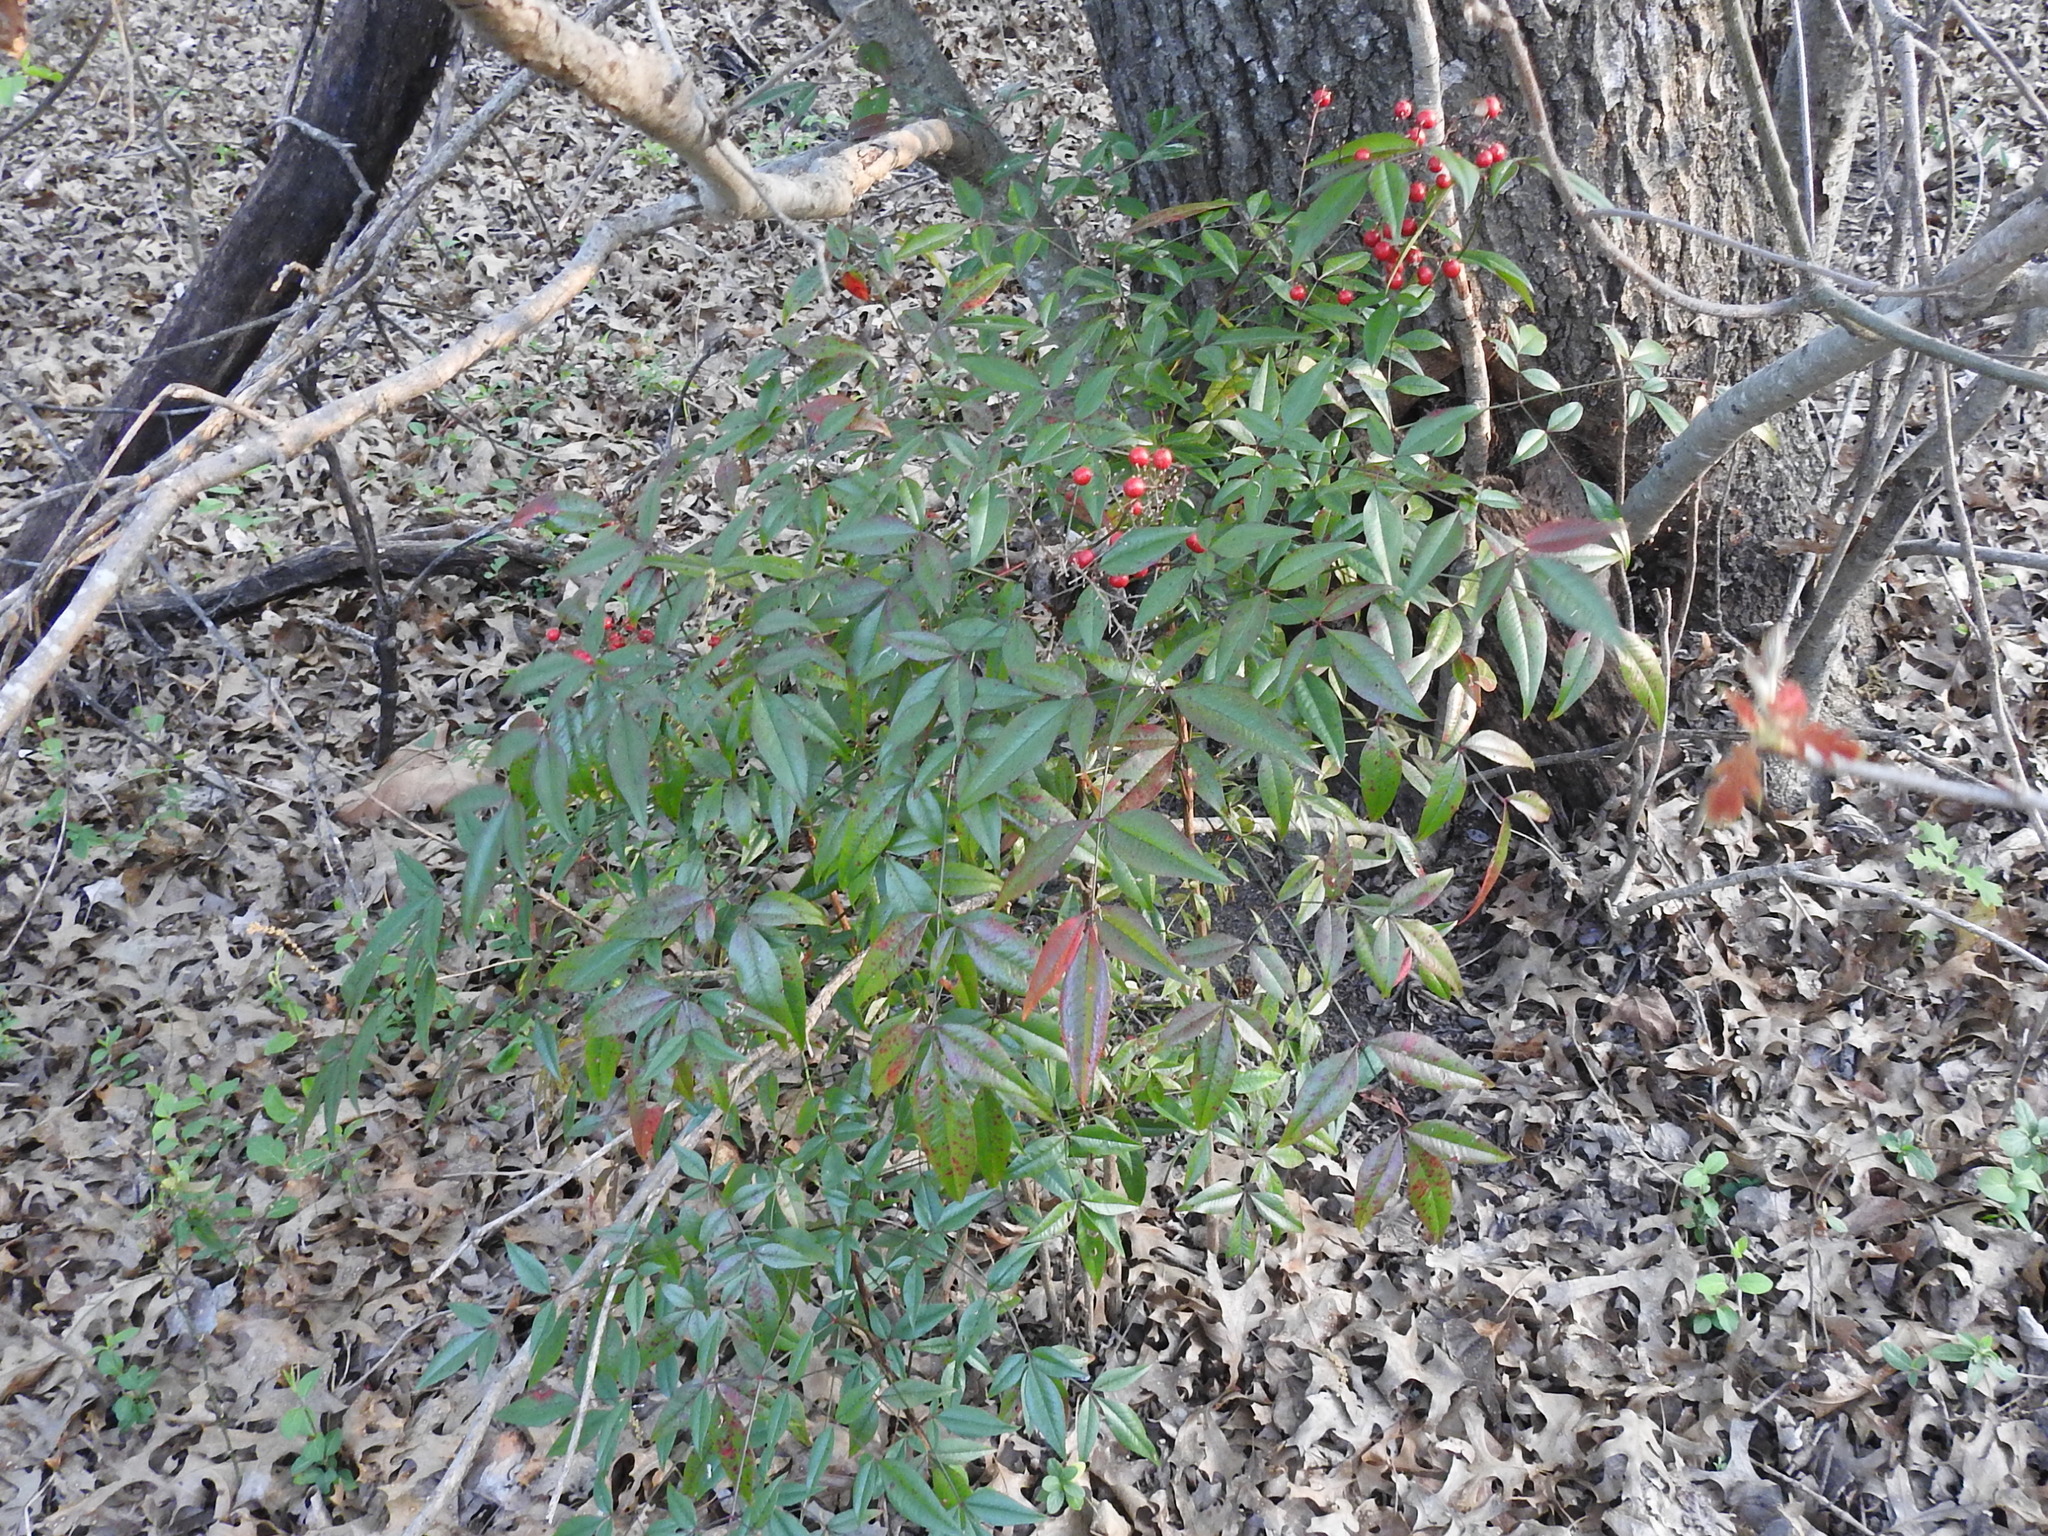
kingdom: Plantae
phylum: Tracheophyta
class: Magnoliopsida
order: Ranunculales
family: Berberidaceae
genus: Nandina
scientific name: Nandina domestica
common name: Sacred bamboo
